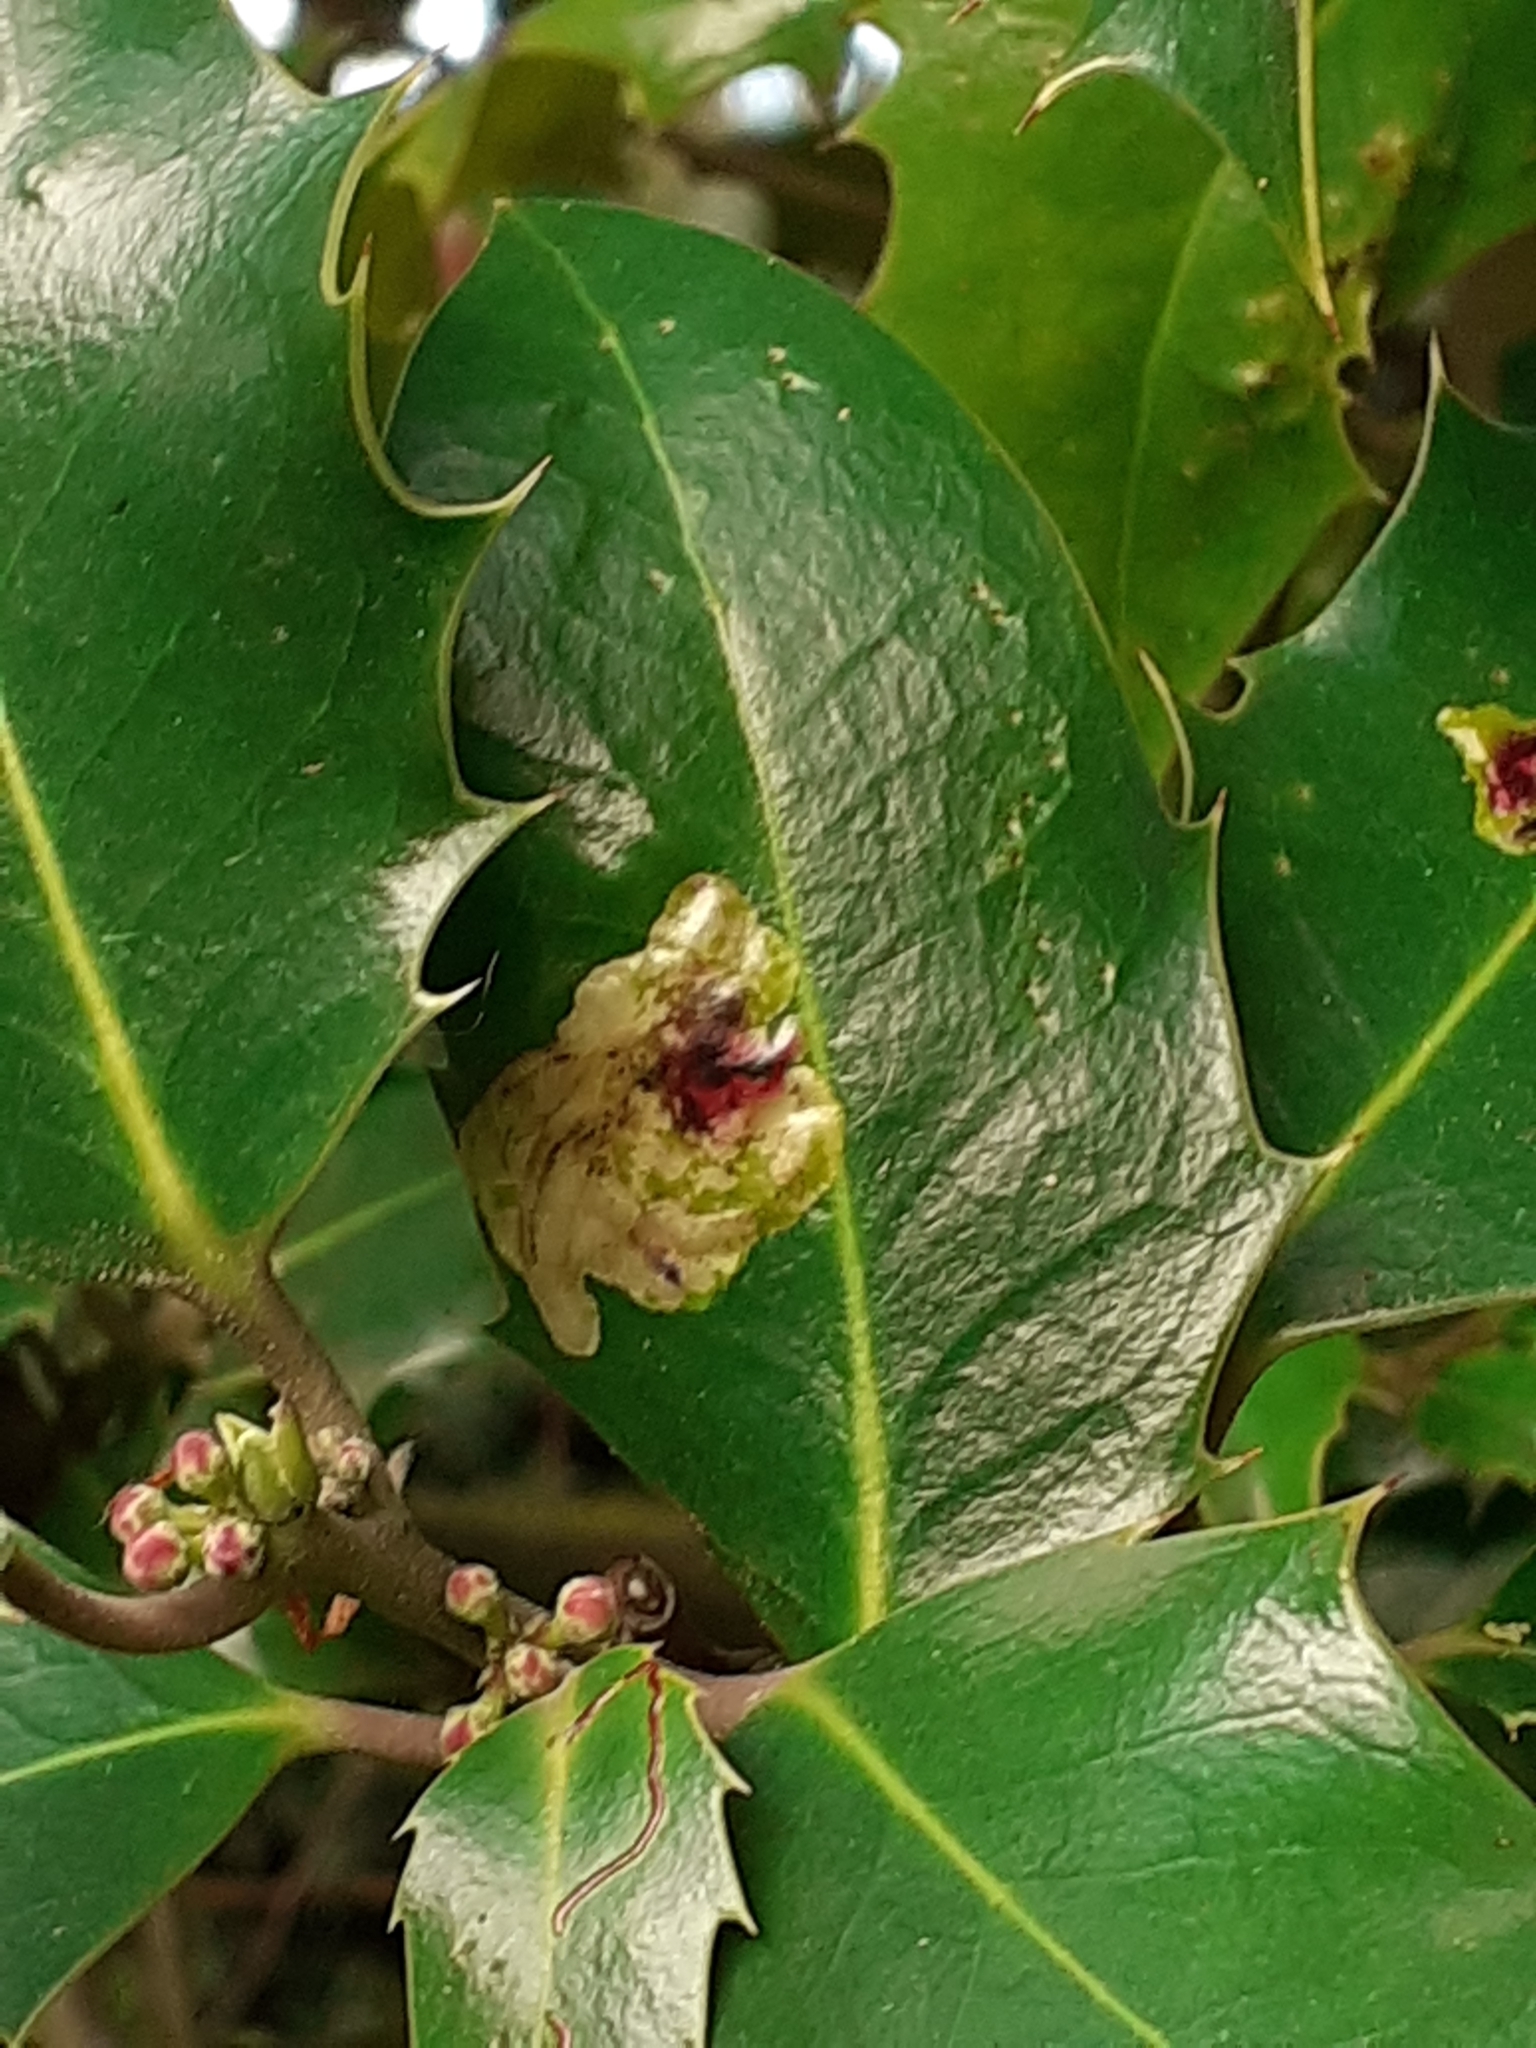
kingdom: Animalia
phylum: Arthropoda
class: Insecta
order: Diptera
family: Agromyzidae
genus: Phytomyza
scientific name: Phytomyza ilicis
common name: Holly leafminer
